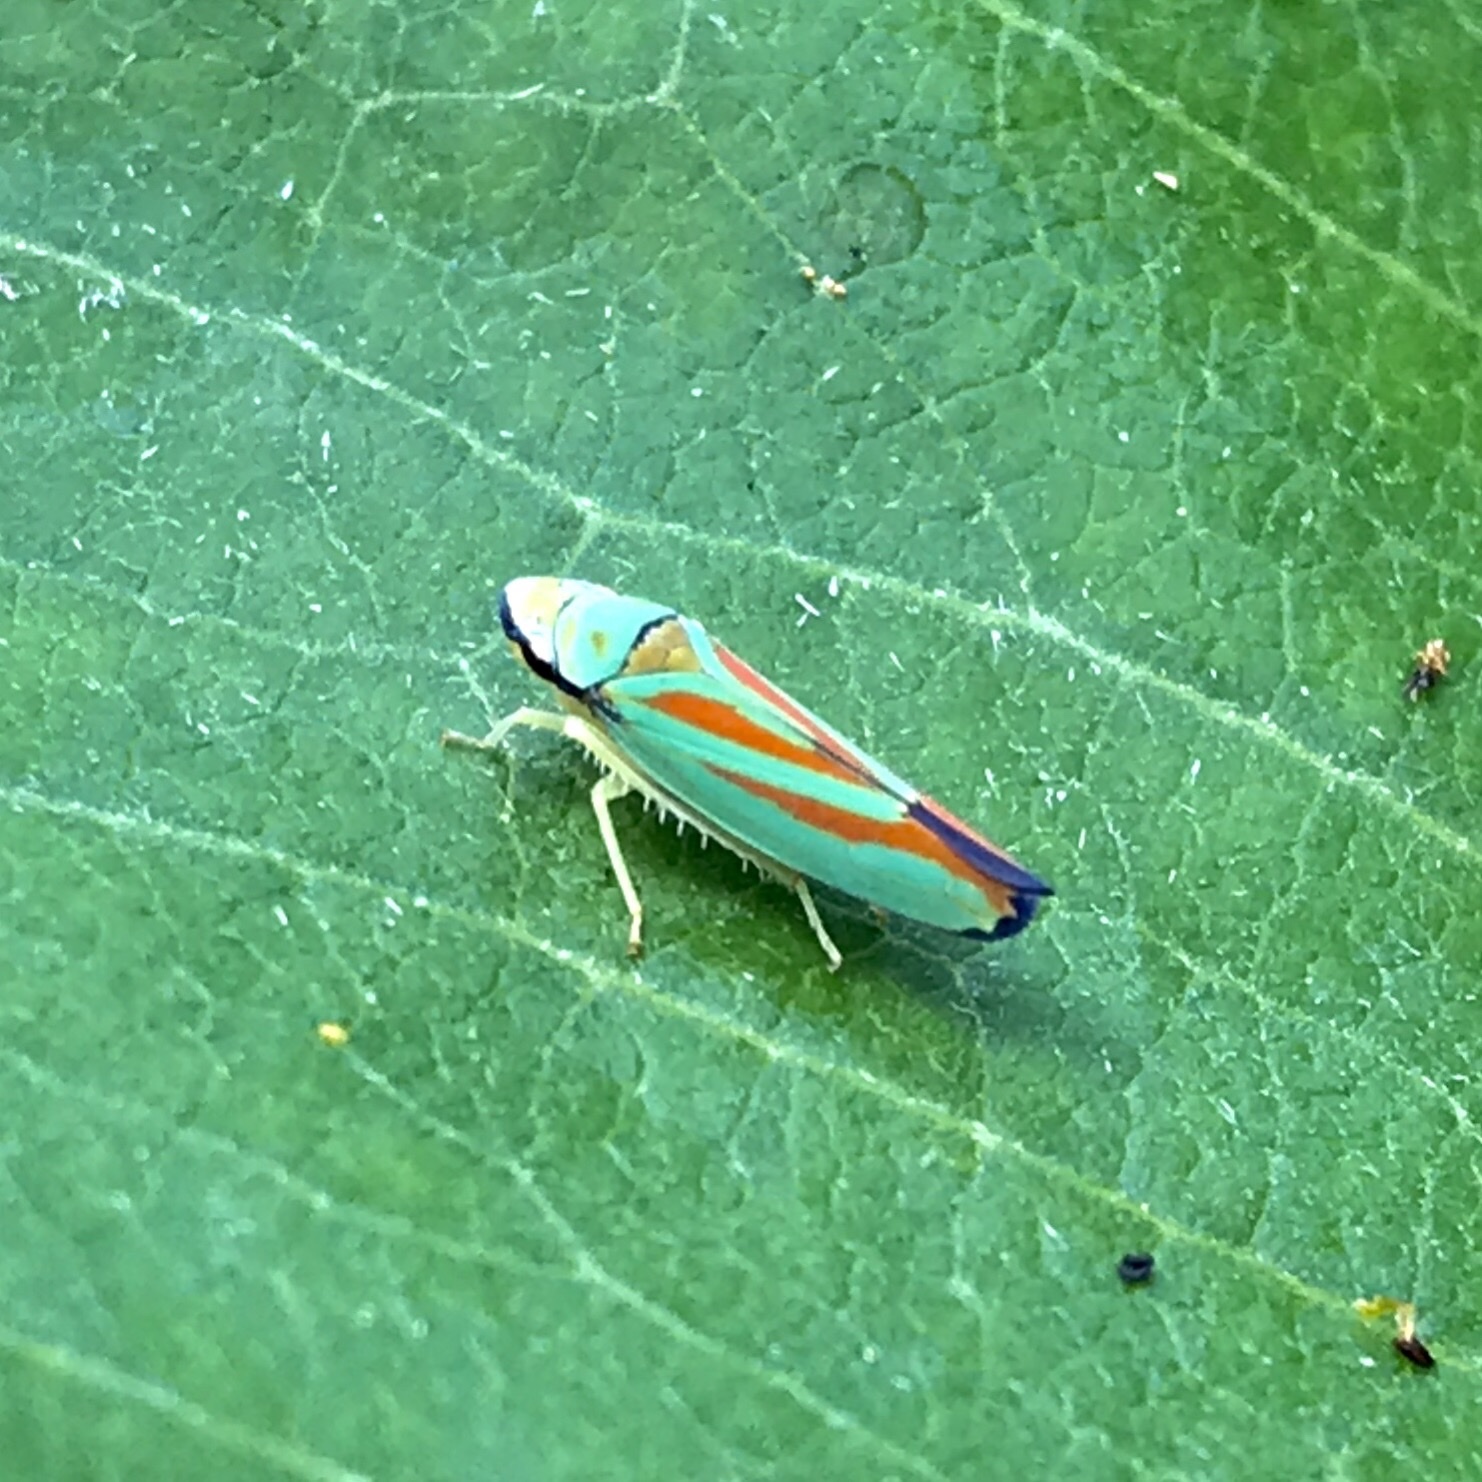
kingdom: Animalia
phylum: Arthropoda
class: Insecta
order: Hemiptera
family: Cicadellidae
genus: Graphocephala
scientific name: Graphocephala fennahi
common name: Rhododendron leafhopper
